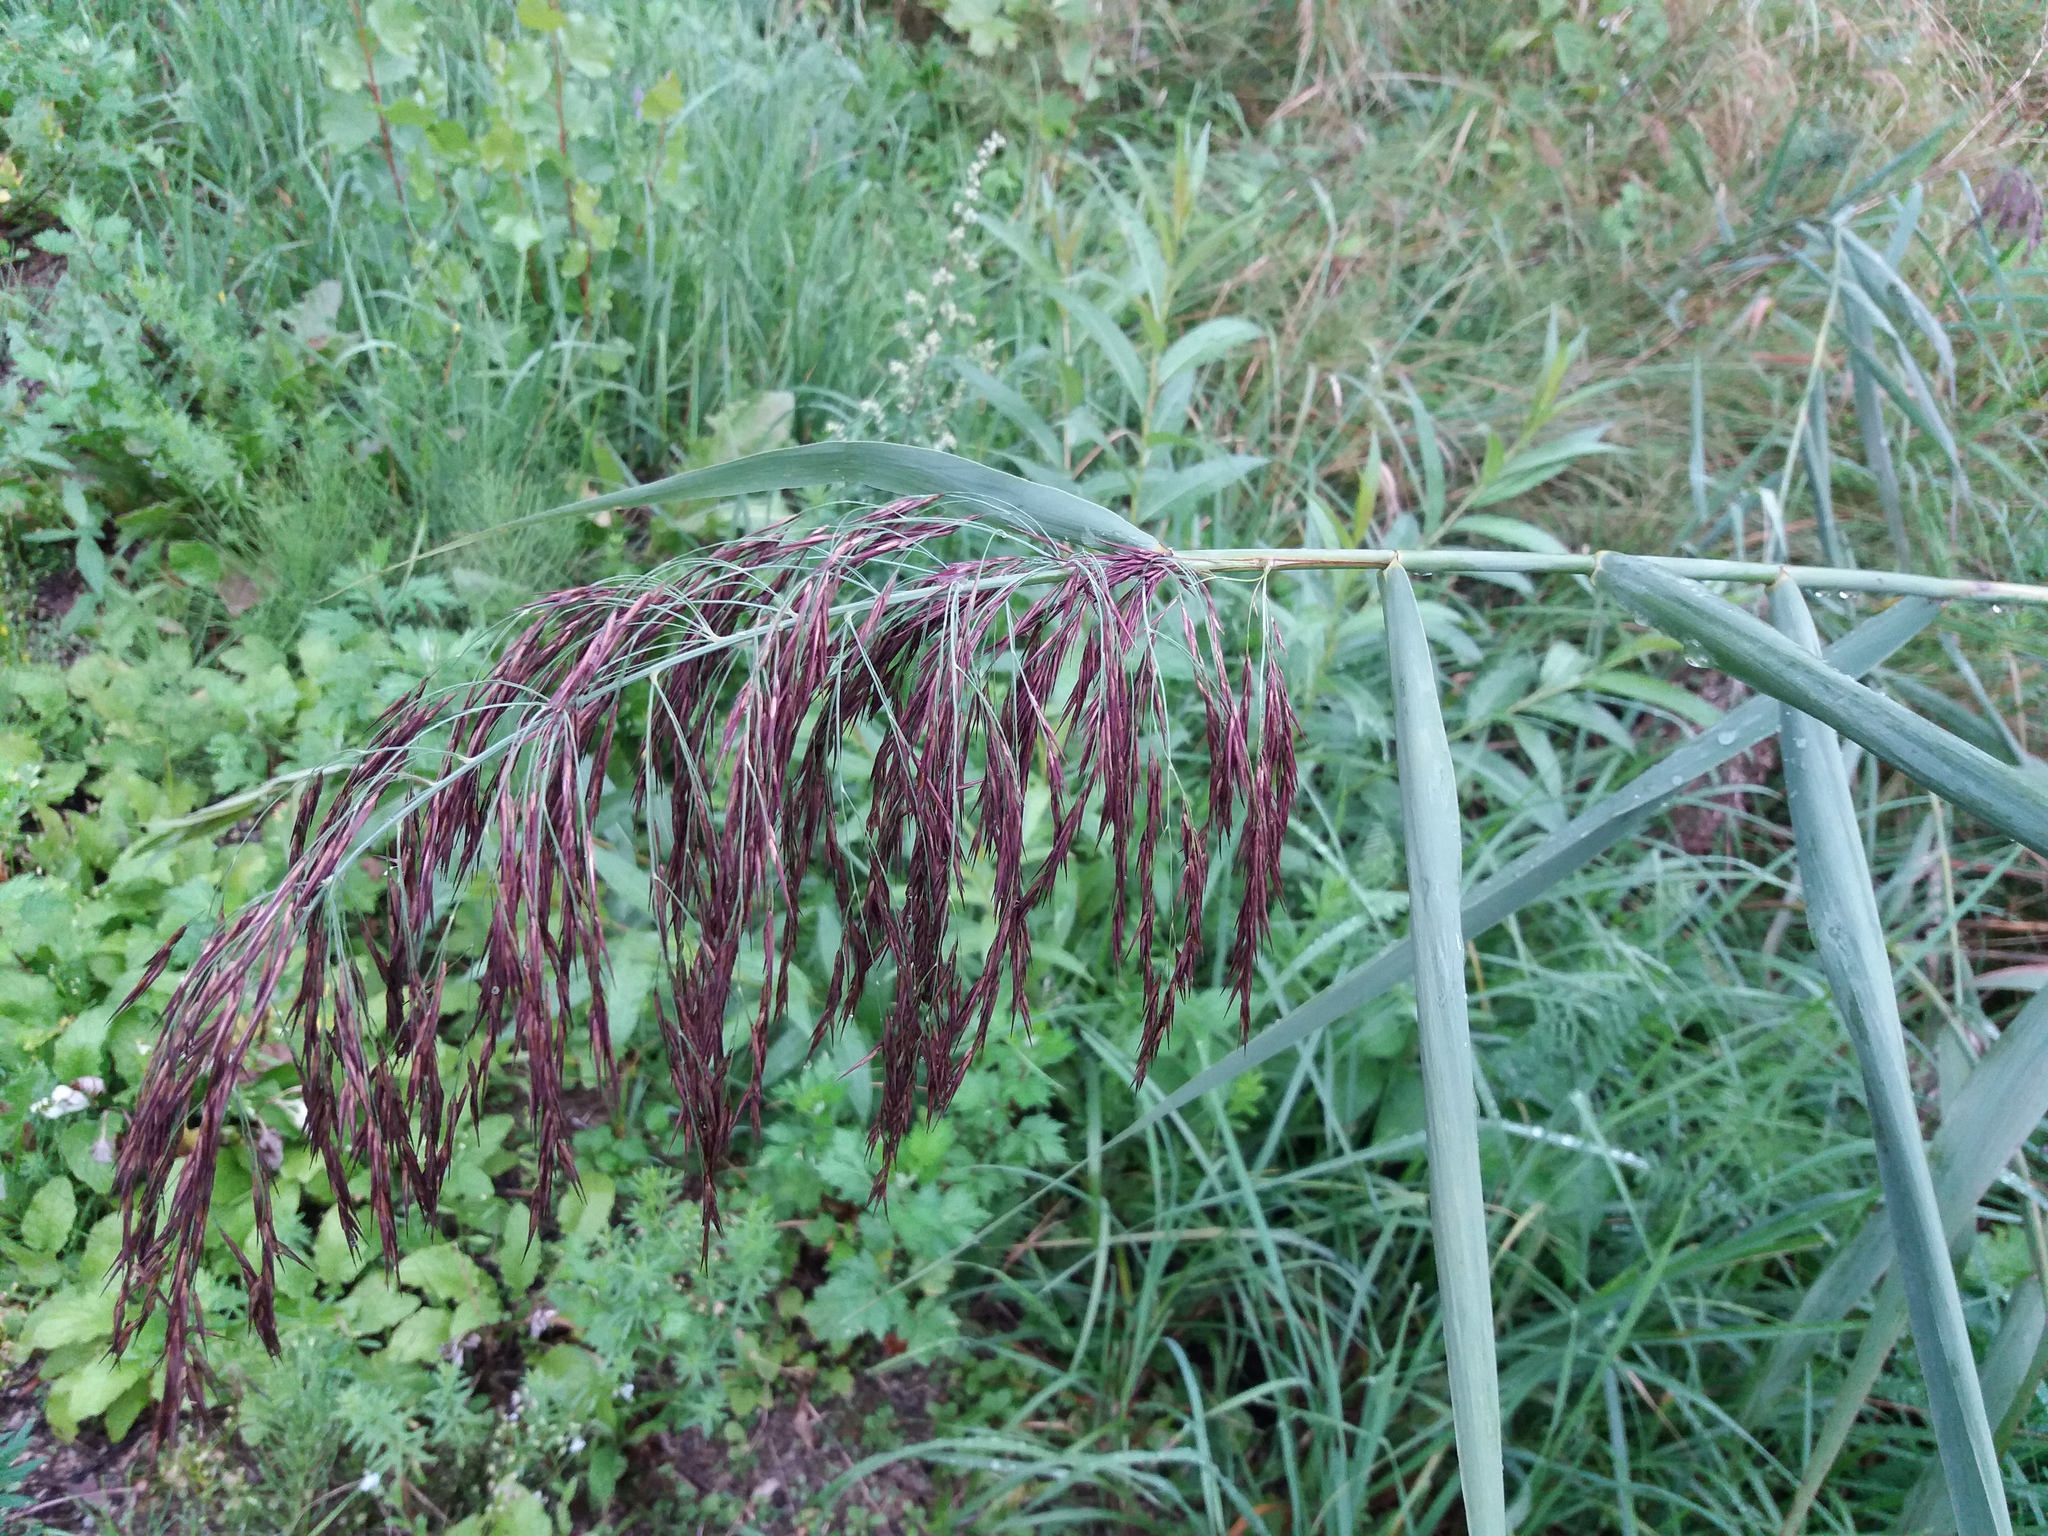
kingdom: Plantae
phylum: Tracheophyta
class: Liliopsida
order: Poales
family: Poaceae
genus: Phragmites
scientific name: Phragmites australis
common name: Common reed
